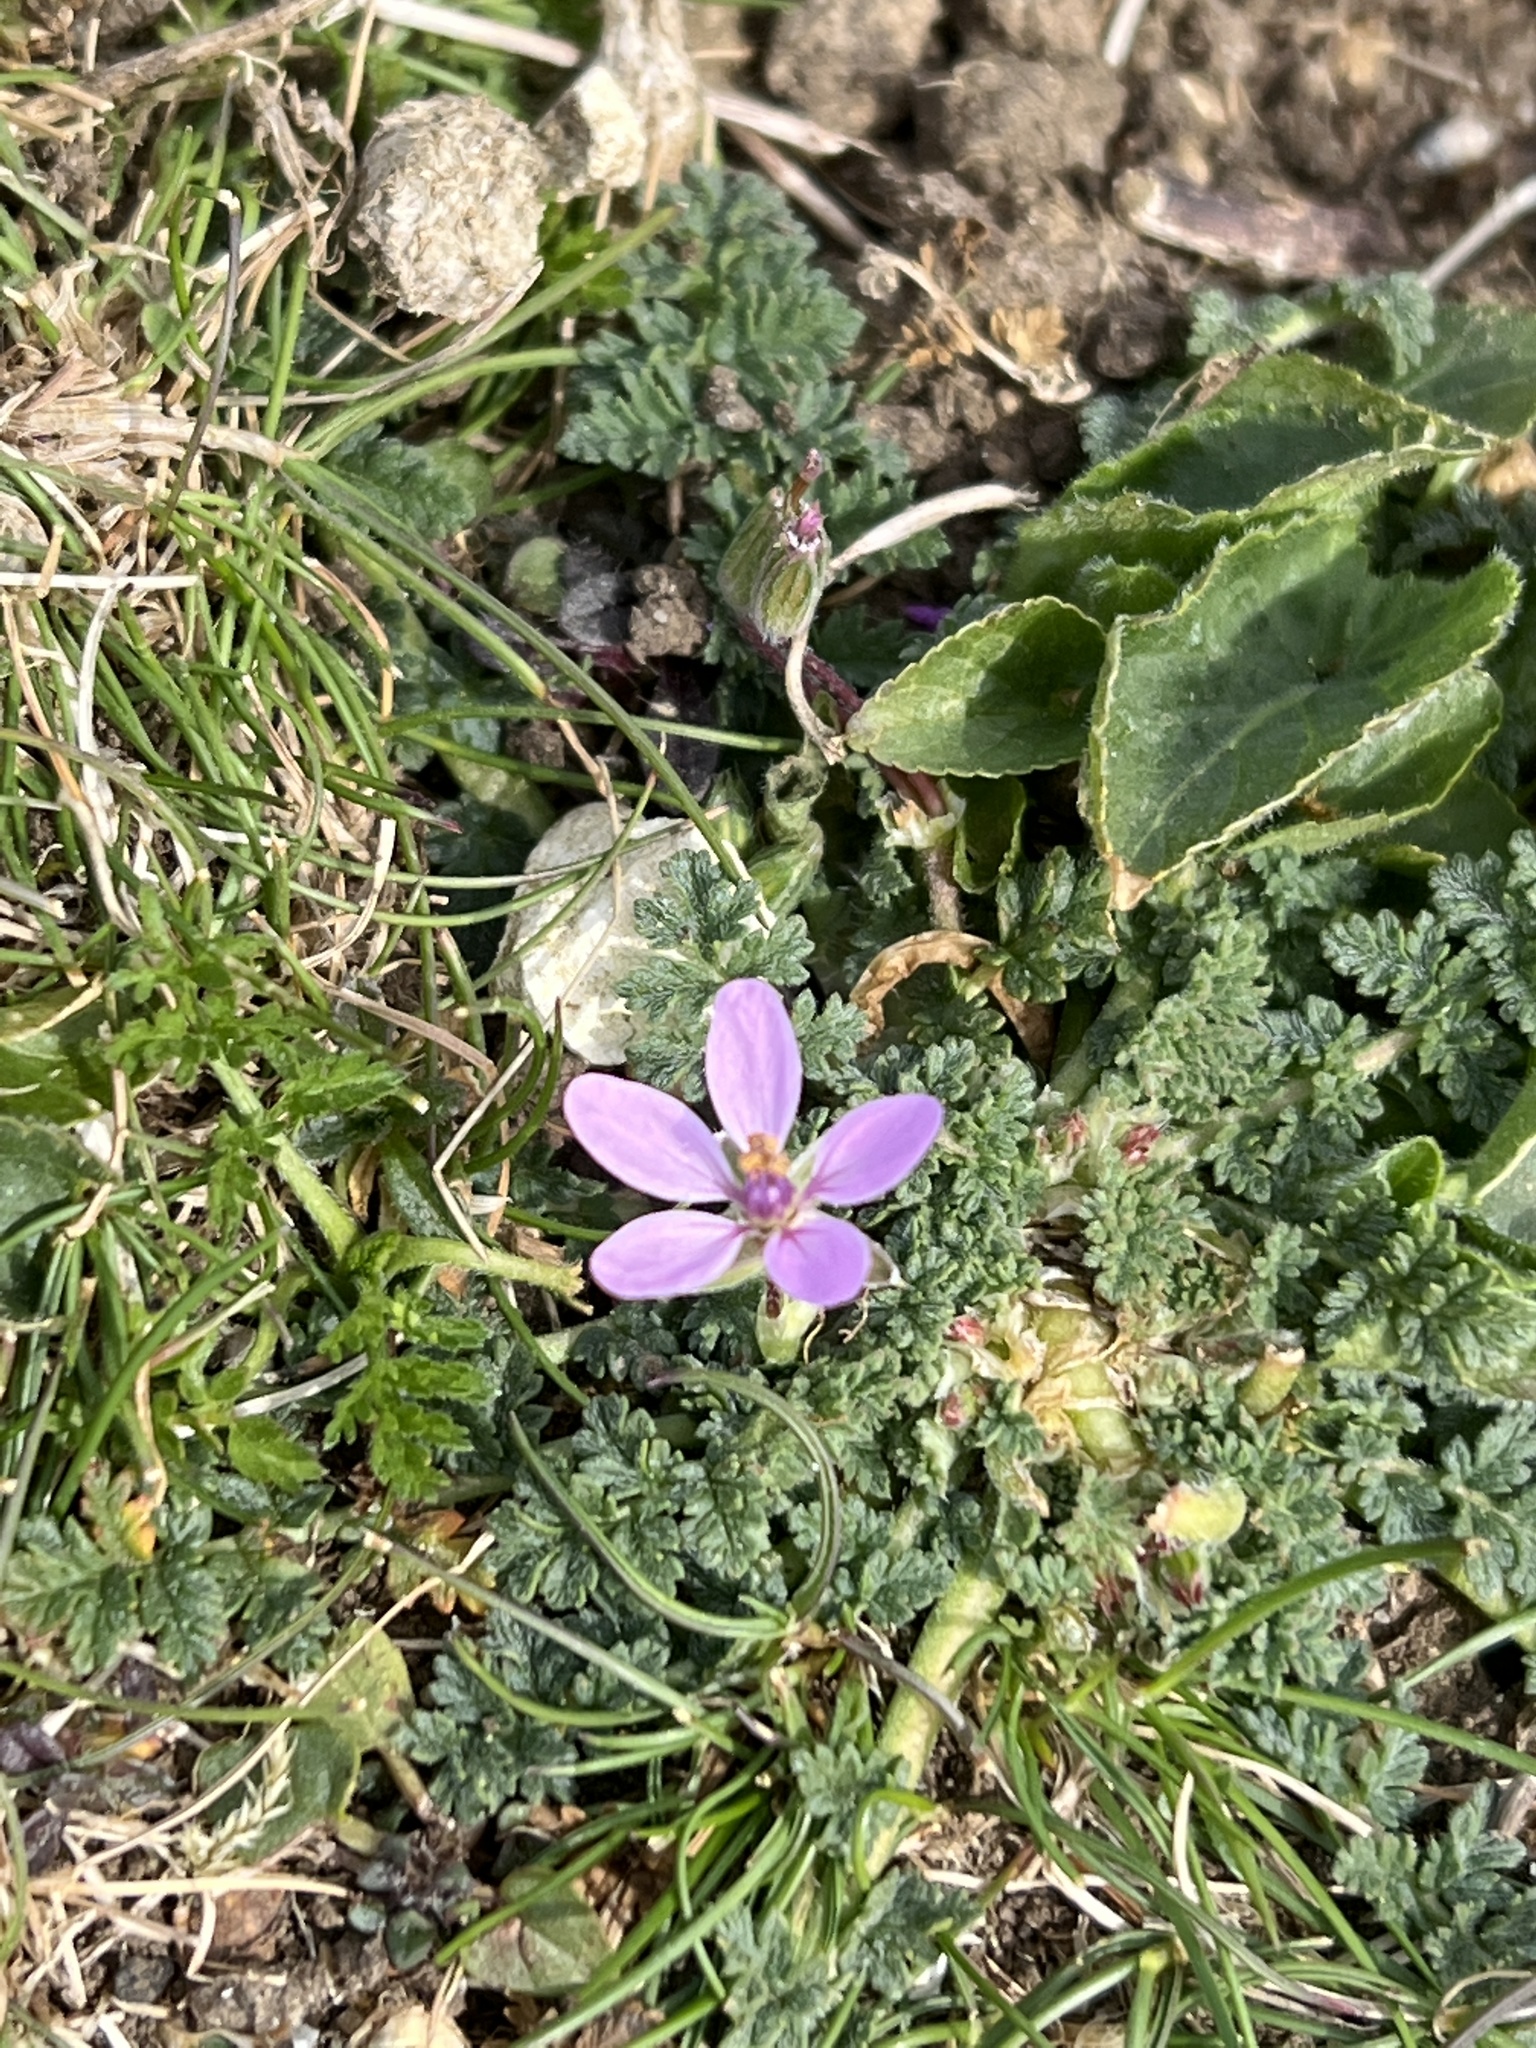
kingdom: Plantae
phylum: Tracheophyta
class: Magnoliopsida
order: Geraniales
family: Geraniaceae
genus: Erodium
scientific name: Erodium cicutarium
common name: Common stork's-bill
